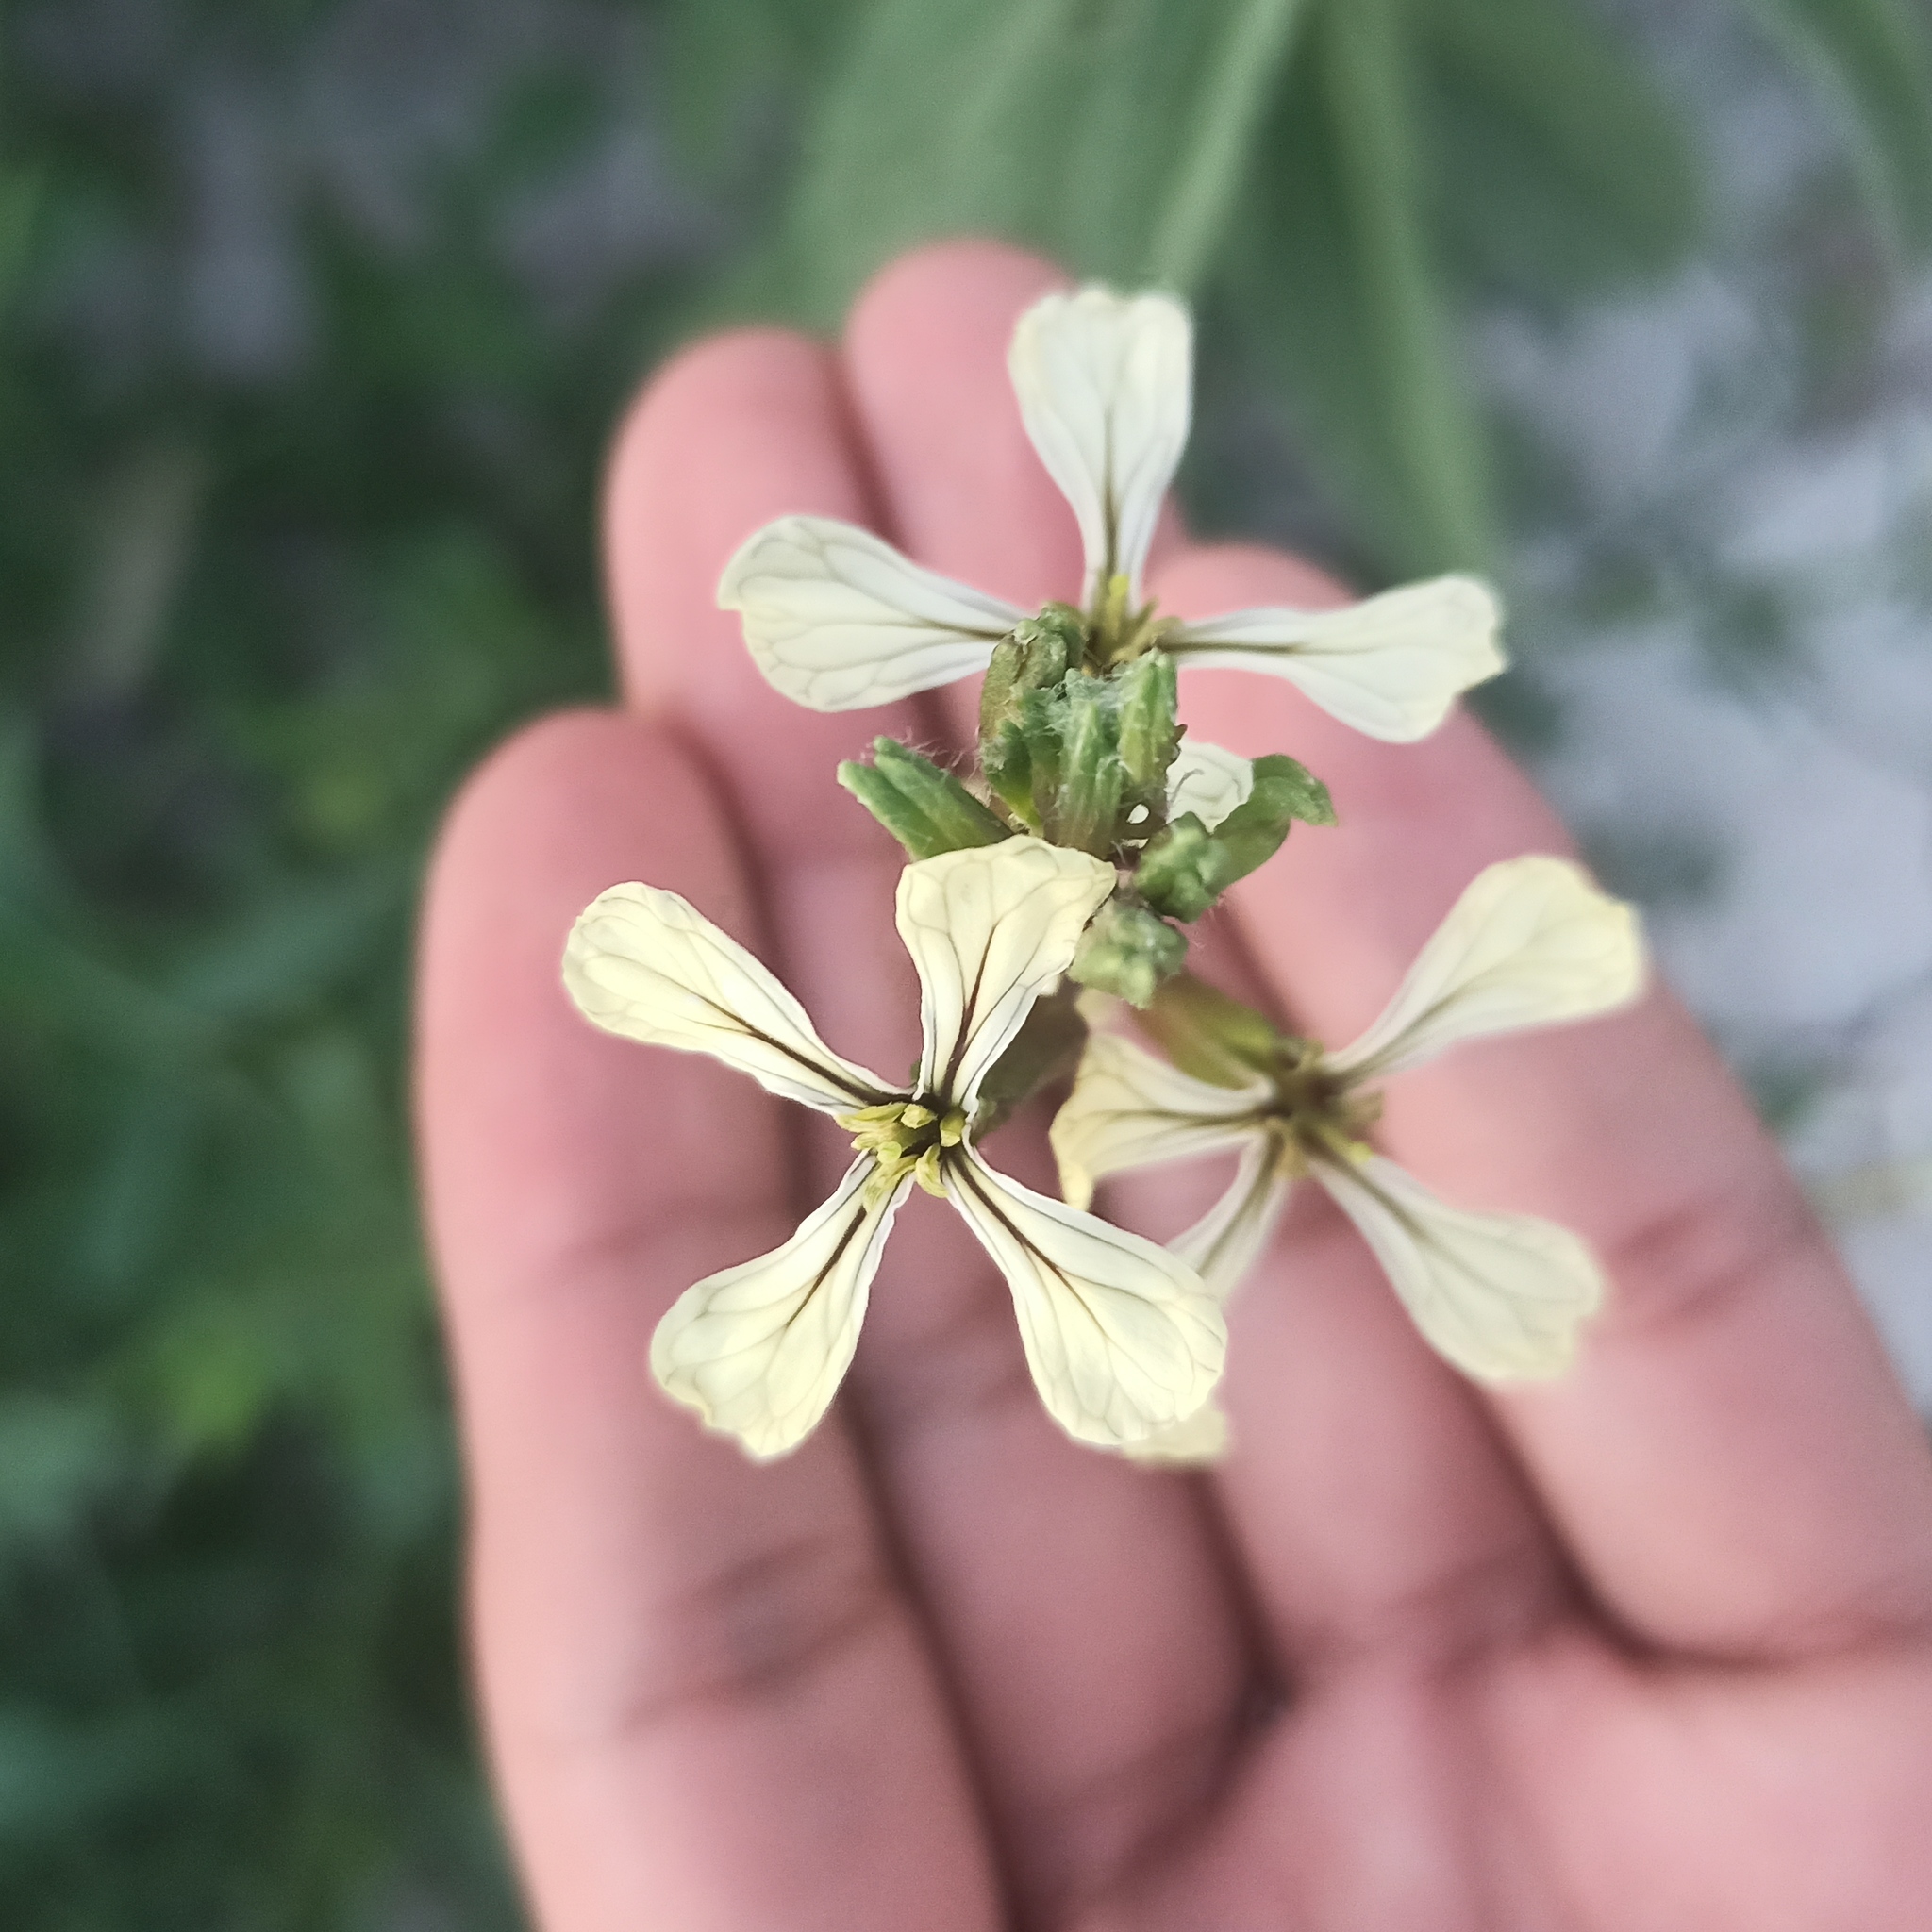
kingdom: Plantae
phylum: Tracheophyta
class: Magnoliopsida
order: Brassicales
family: Brassicaceae
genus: Eruca
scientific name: Eruca vesicaria
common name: Garden rocket
